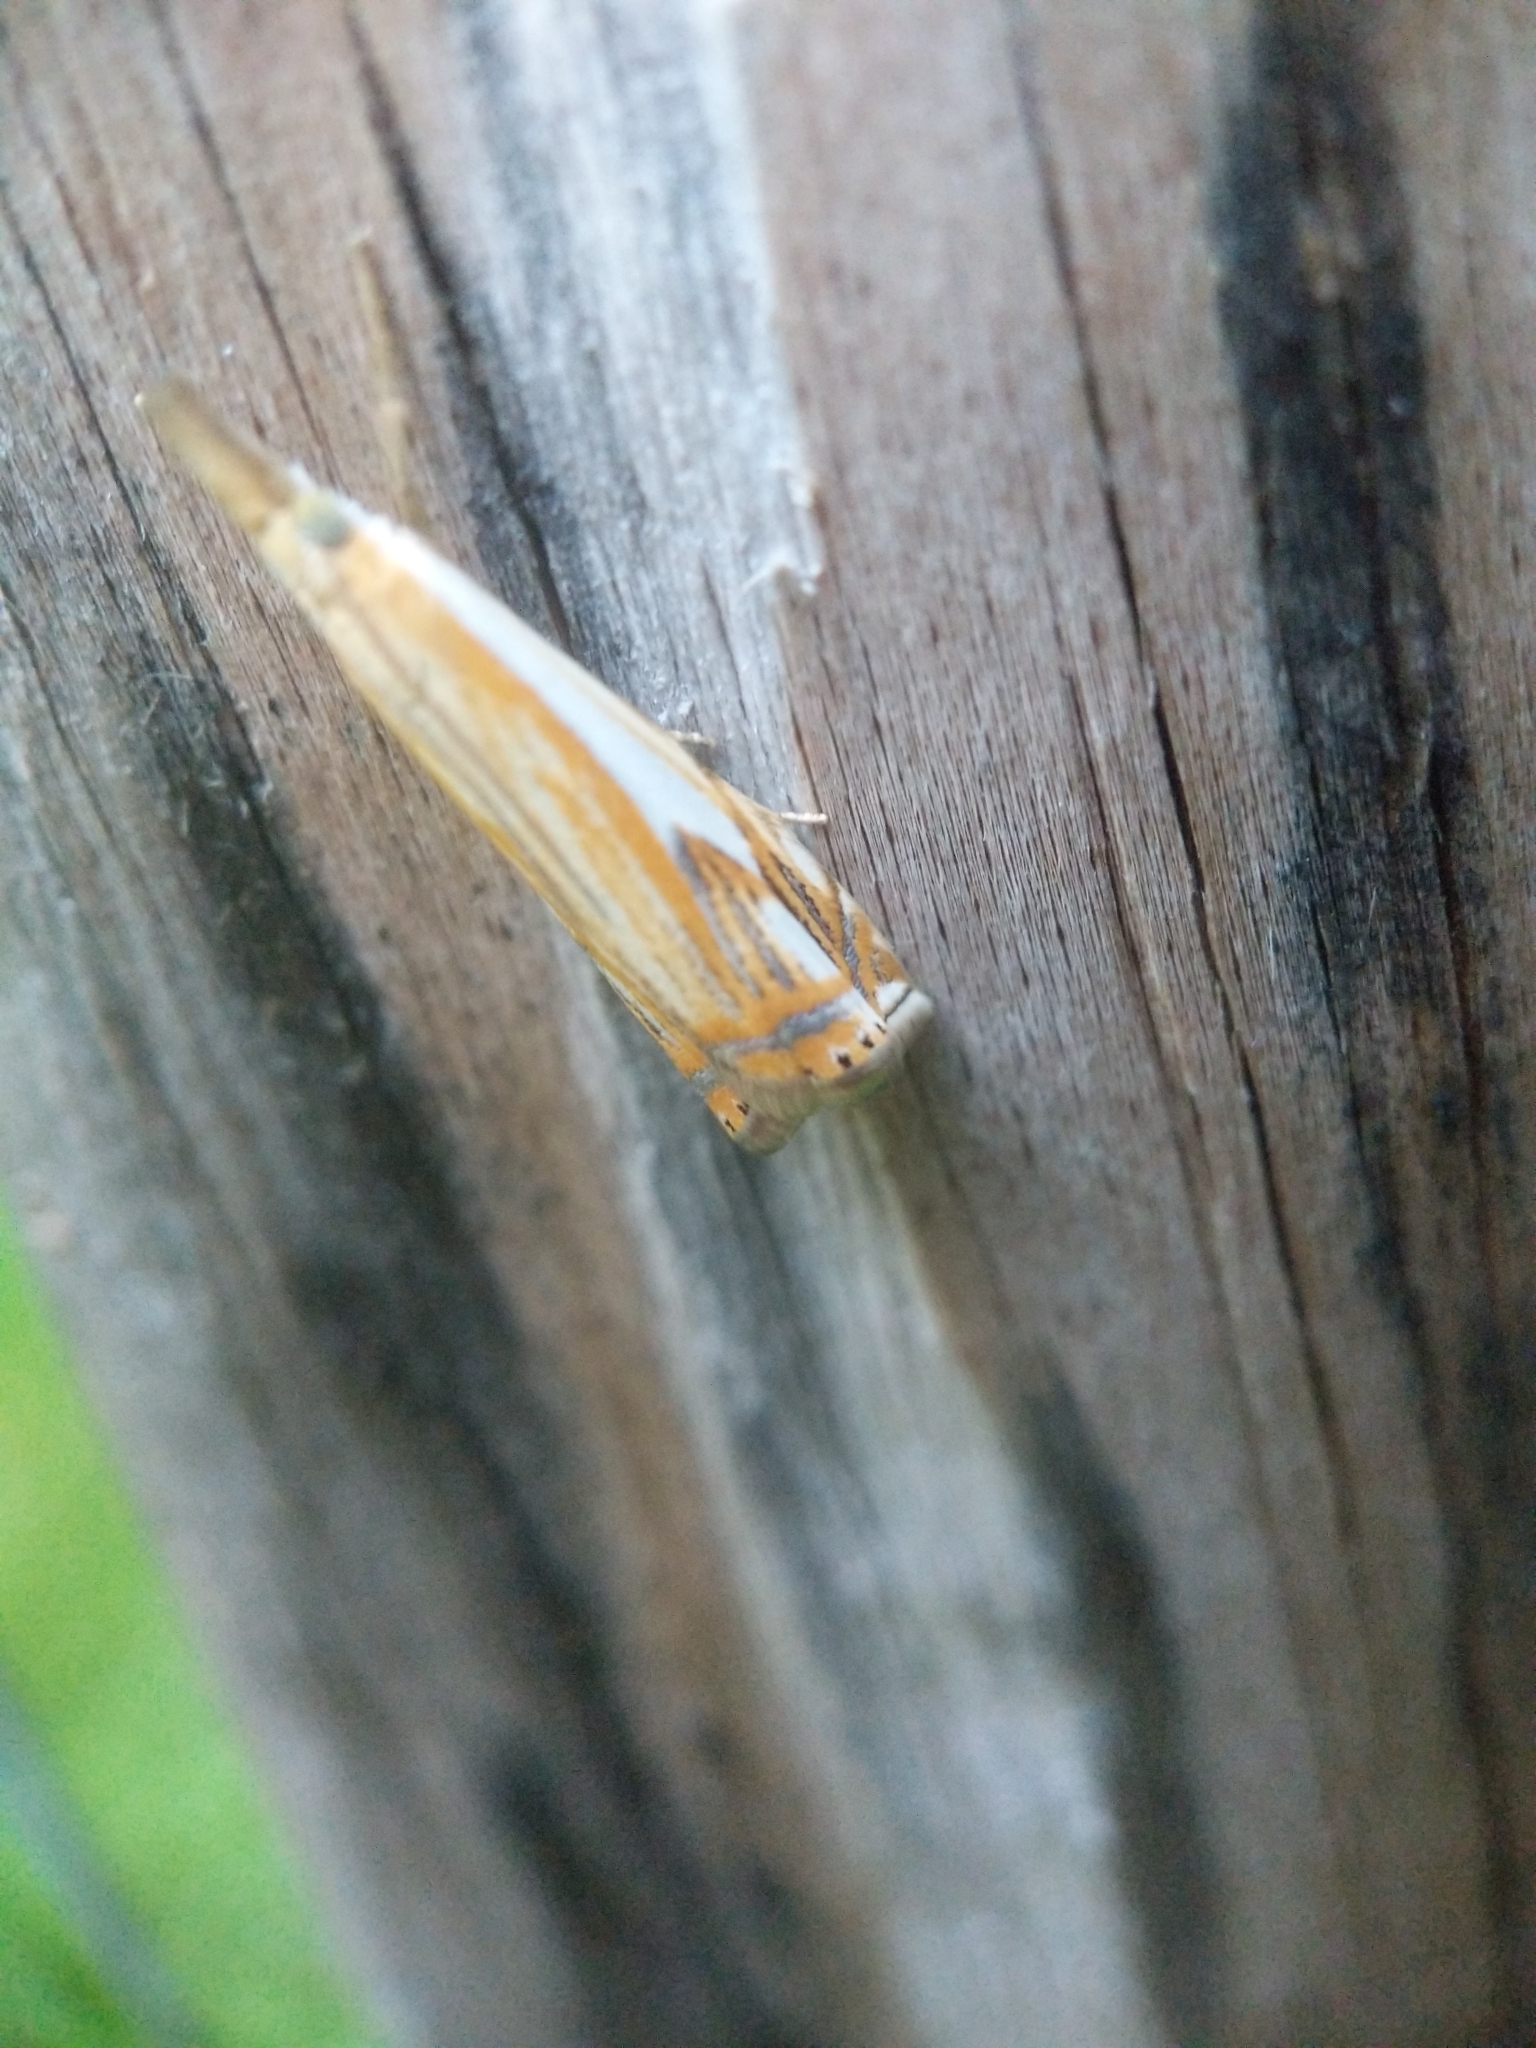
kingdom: Animalia
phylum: Arthropoda
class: Insecta
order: Lepidoptera
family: Crambidae
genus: Crambus
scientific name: Crambus agitatellus
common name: Double-banded grass-veneer
